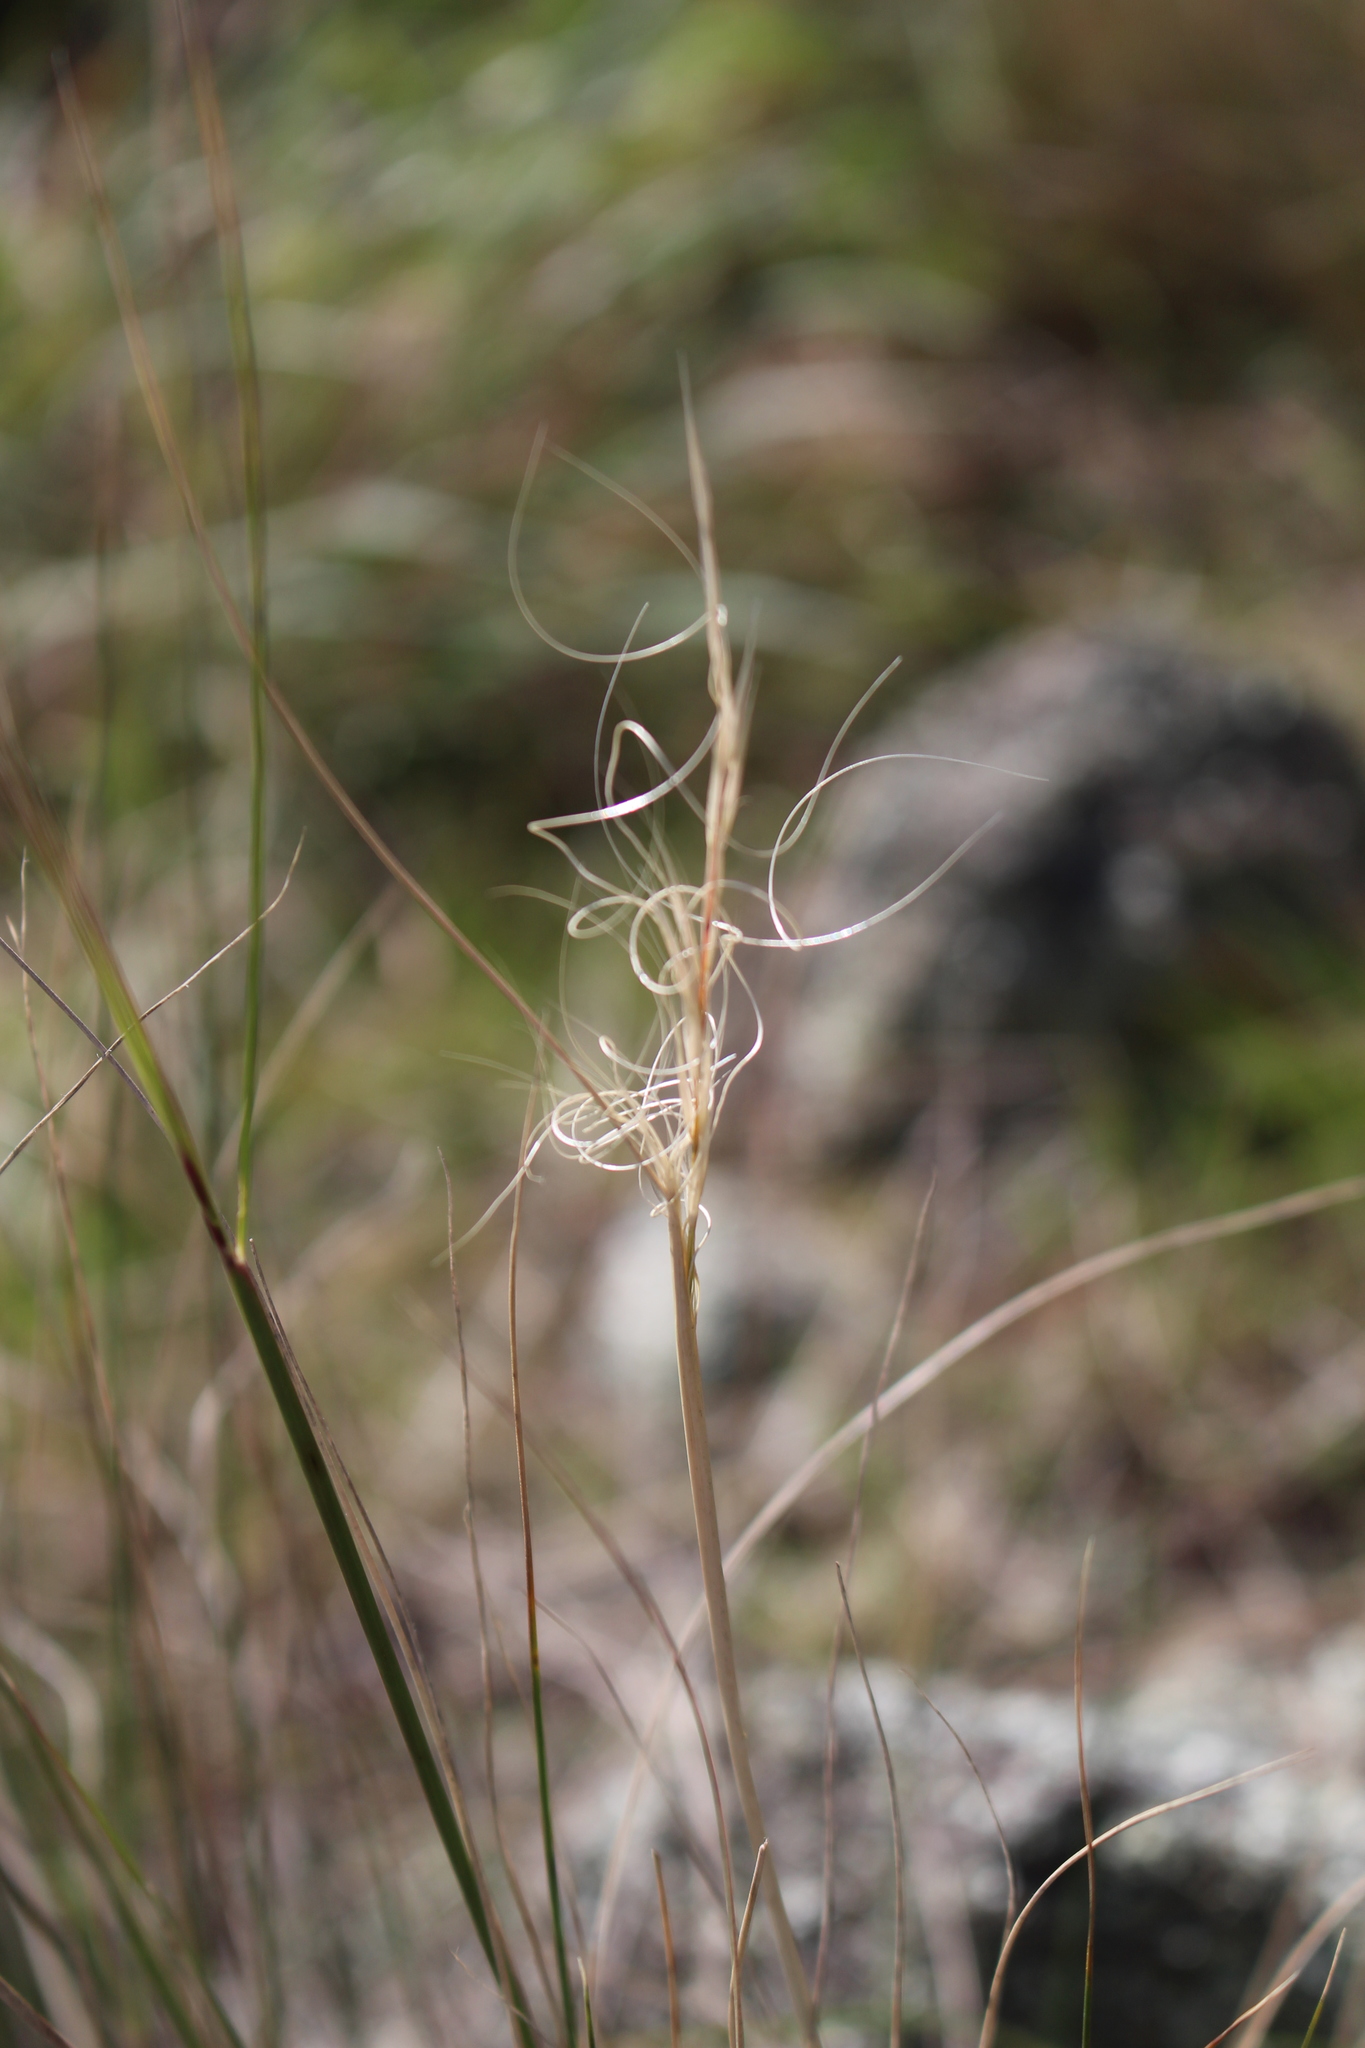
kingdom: Plantae
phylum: Tracheophyta
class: Liliopsida
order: Poales
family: Poaceae
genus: Anthosachne
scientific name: Anthosachne solandri
